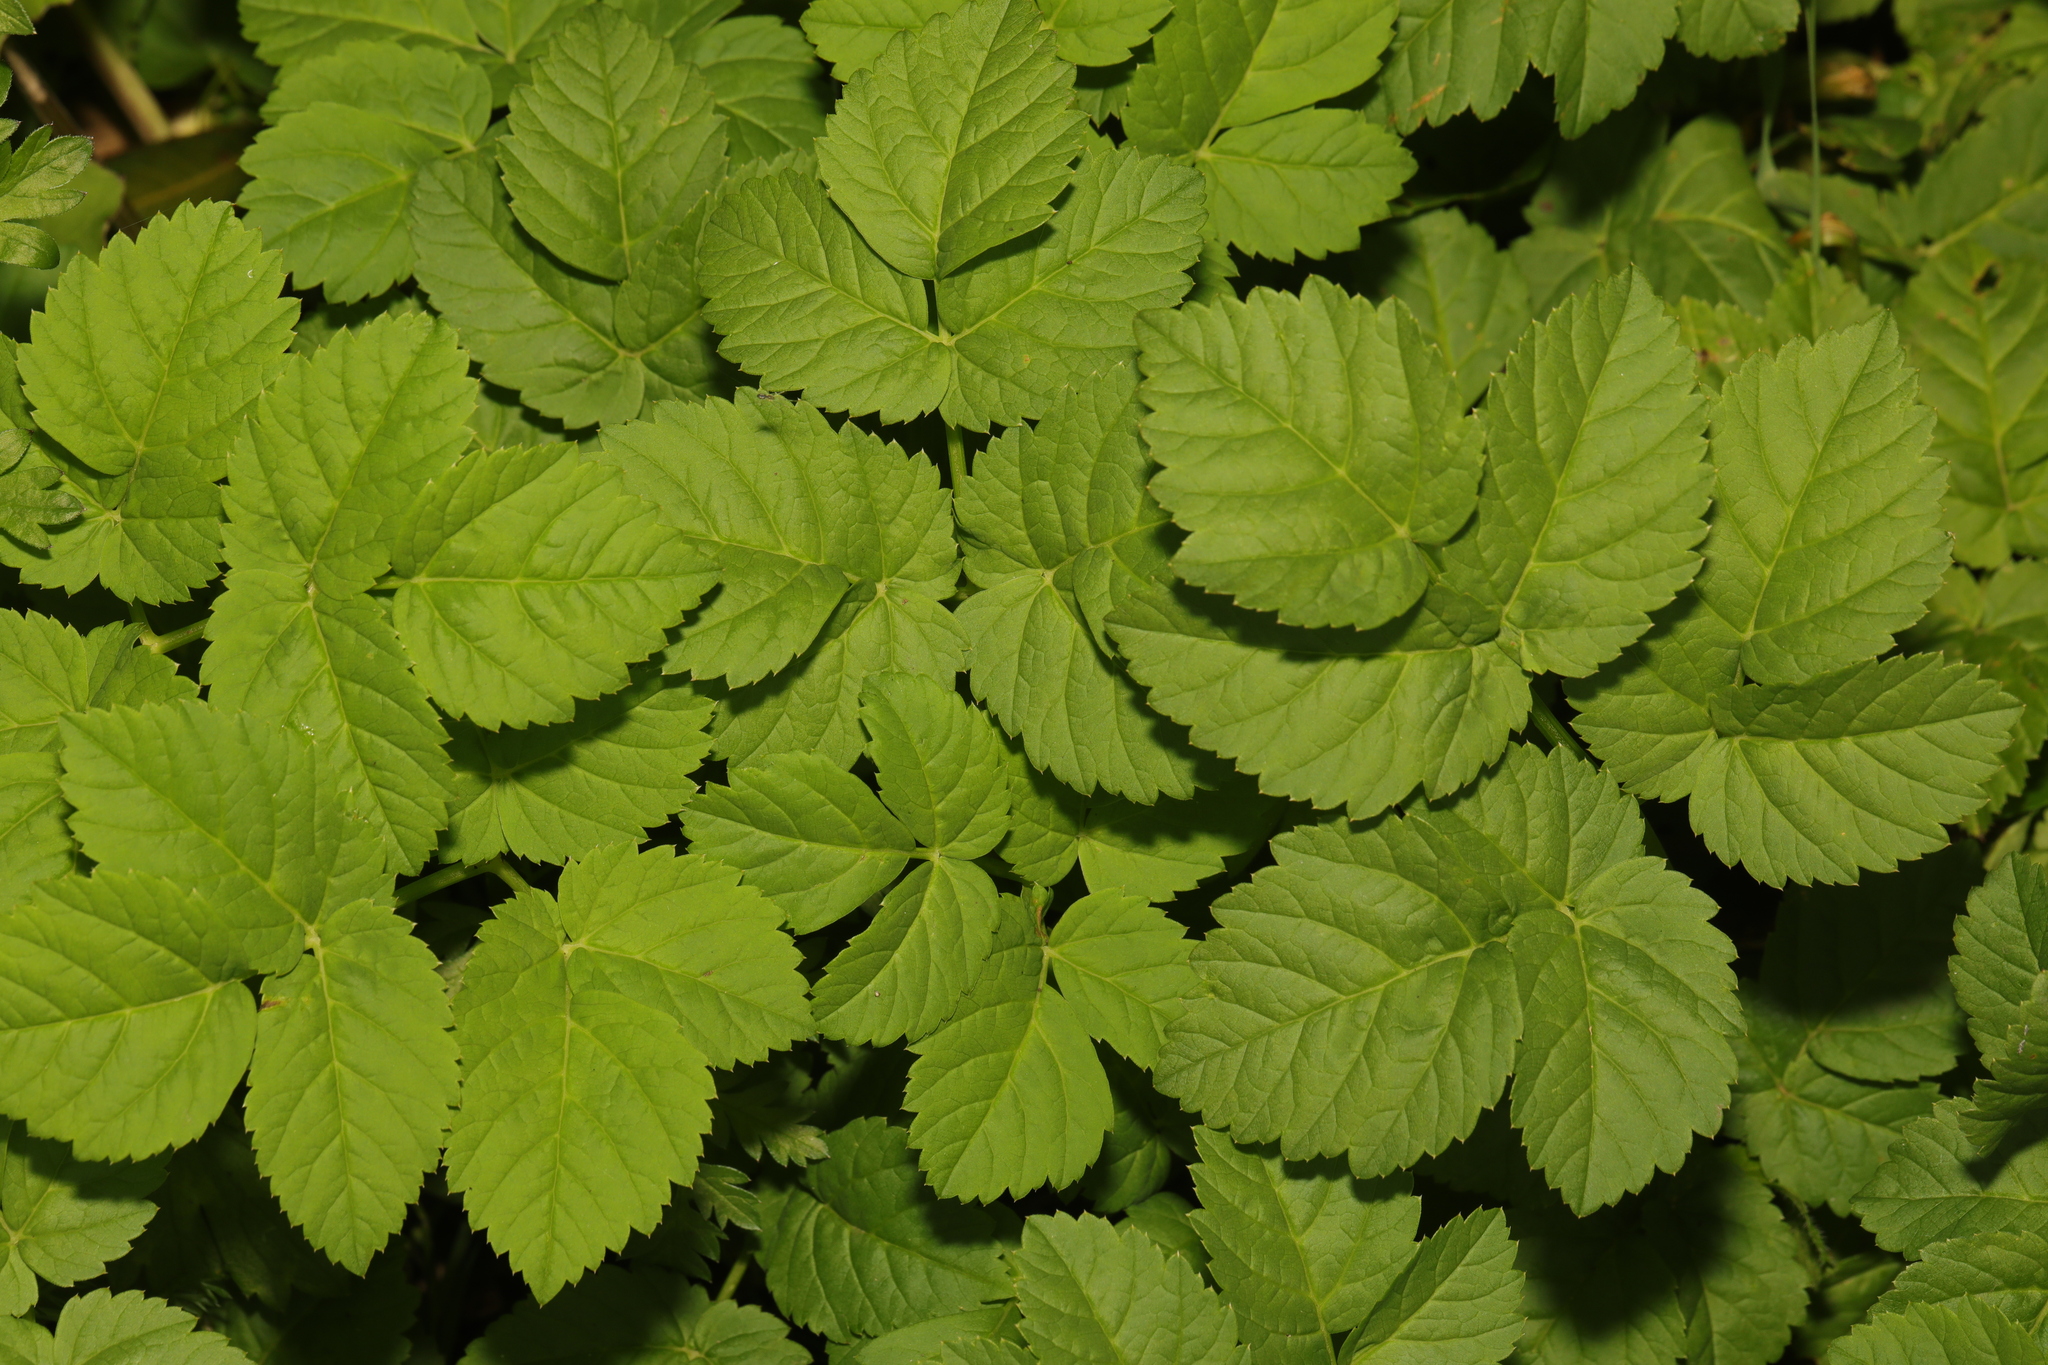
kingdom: Plantae
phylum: Tracheophyta
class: Magnoliopsida
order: Apiales
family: Apiaceae
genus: Aegopodium
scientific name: Aegopodium podagraria
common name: Ground-elder
